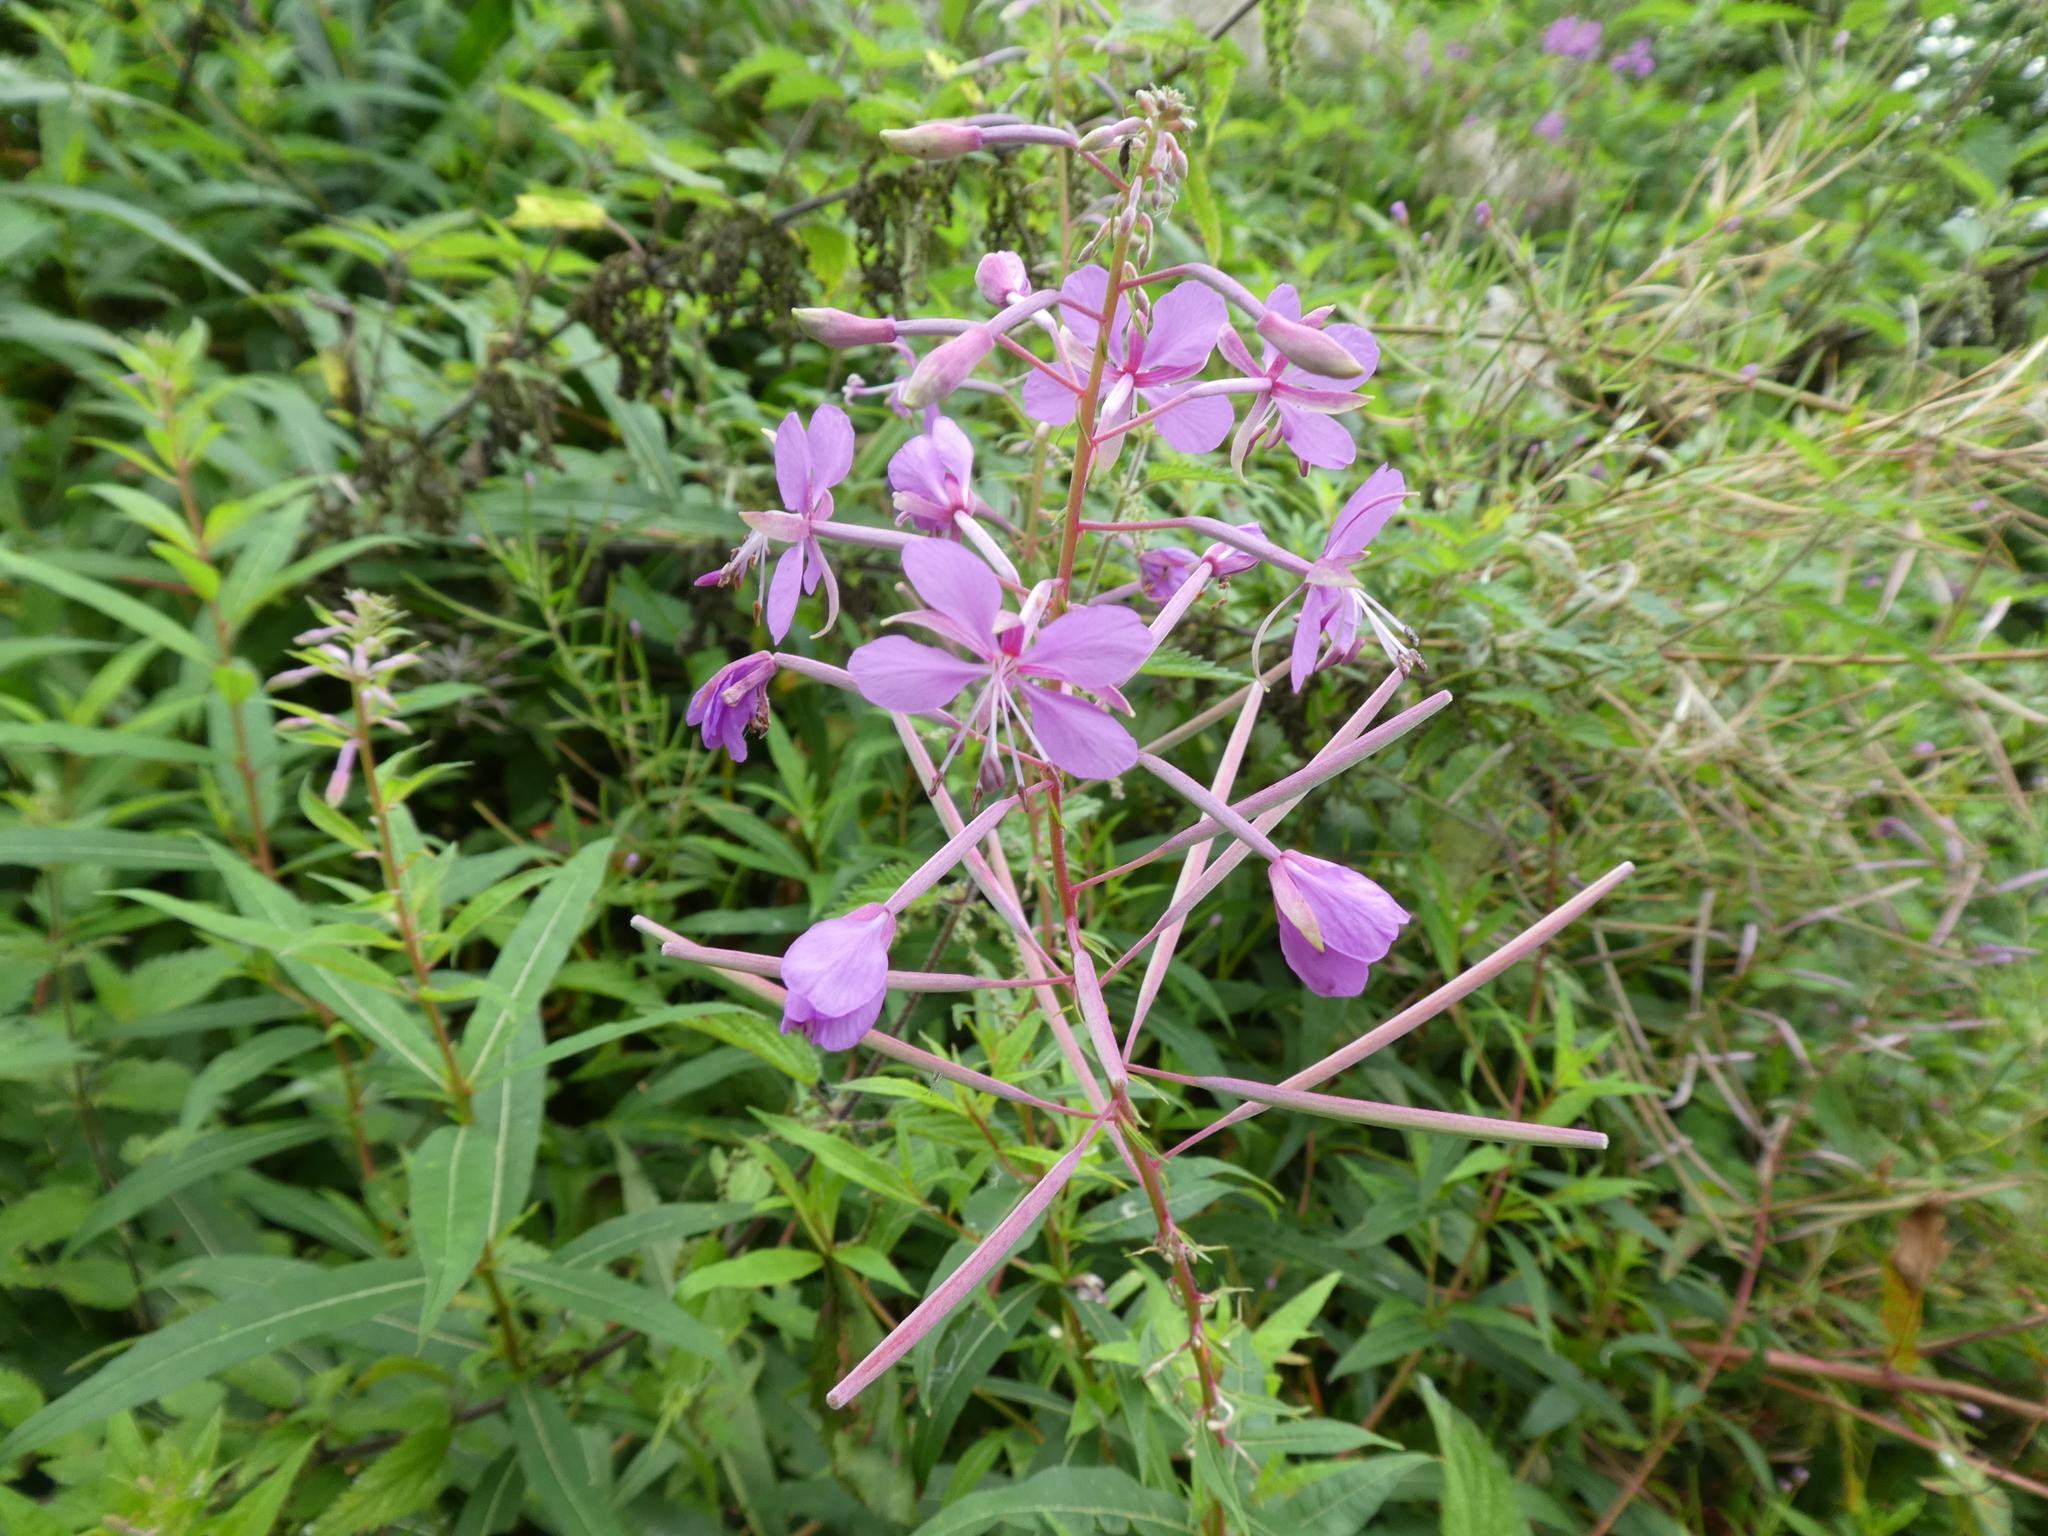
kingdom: Plantae
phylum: Tracheophyta
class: Magnoliopsida
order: Myrtales
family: Onagraceae
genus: Chamaenerion
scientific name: Chamaenerion angustifolium
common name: Fireweed
